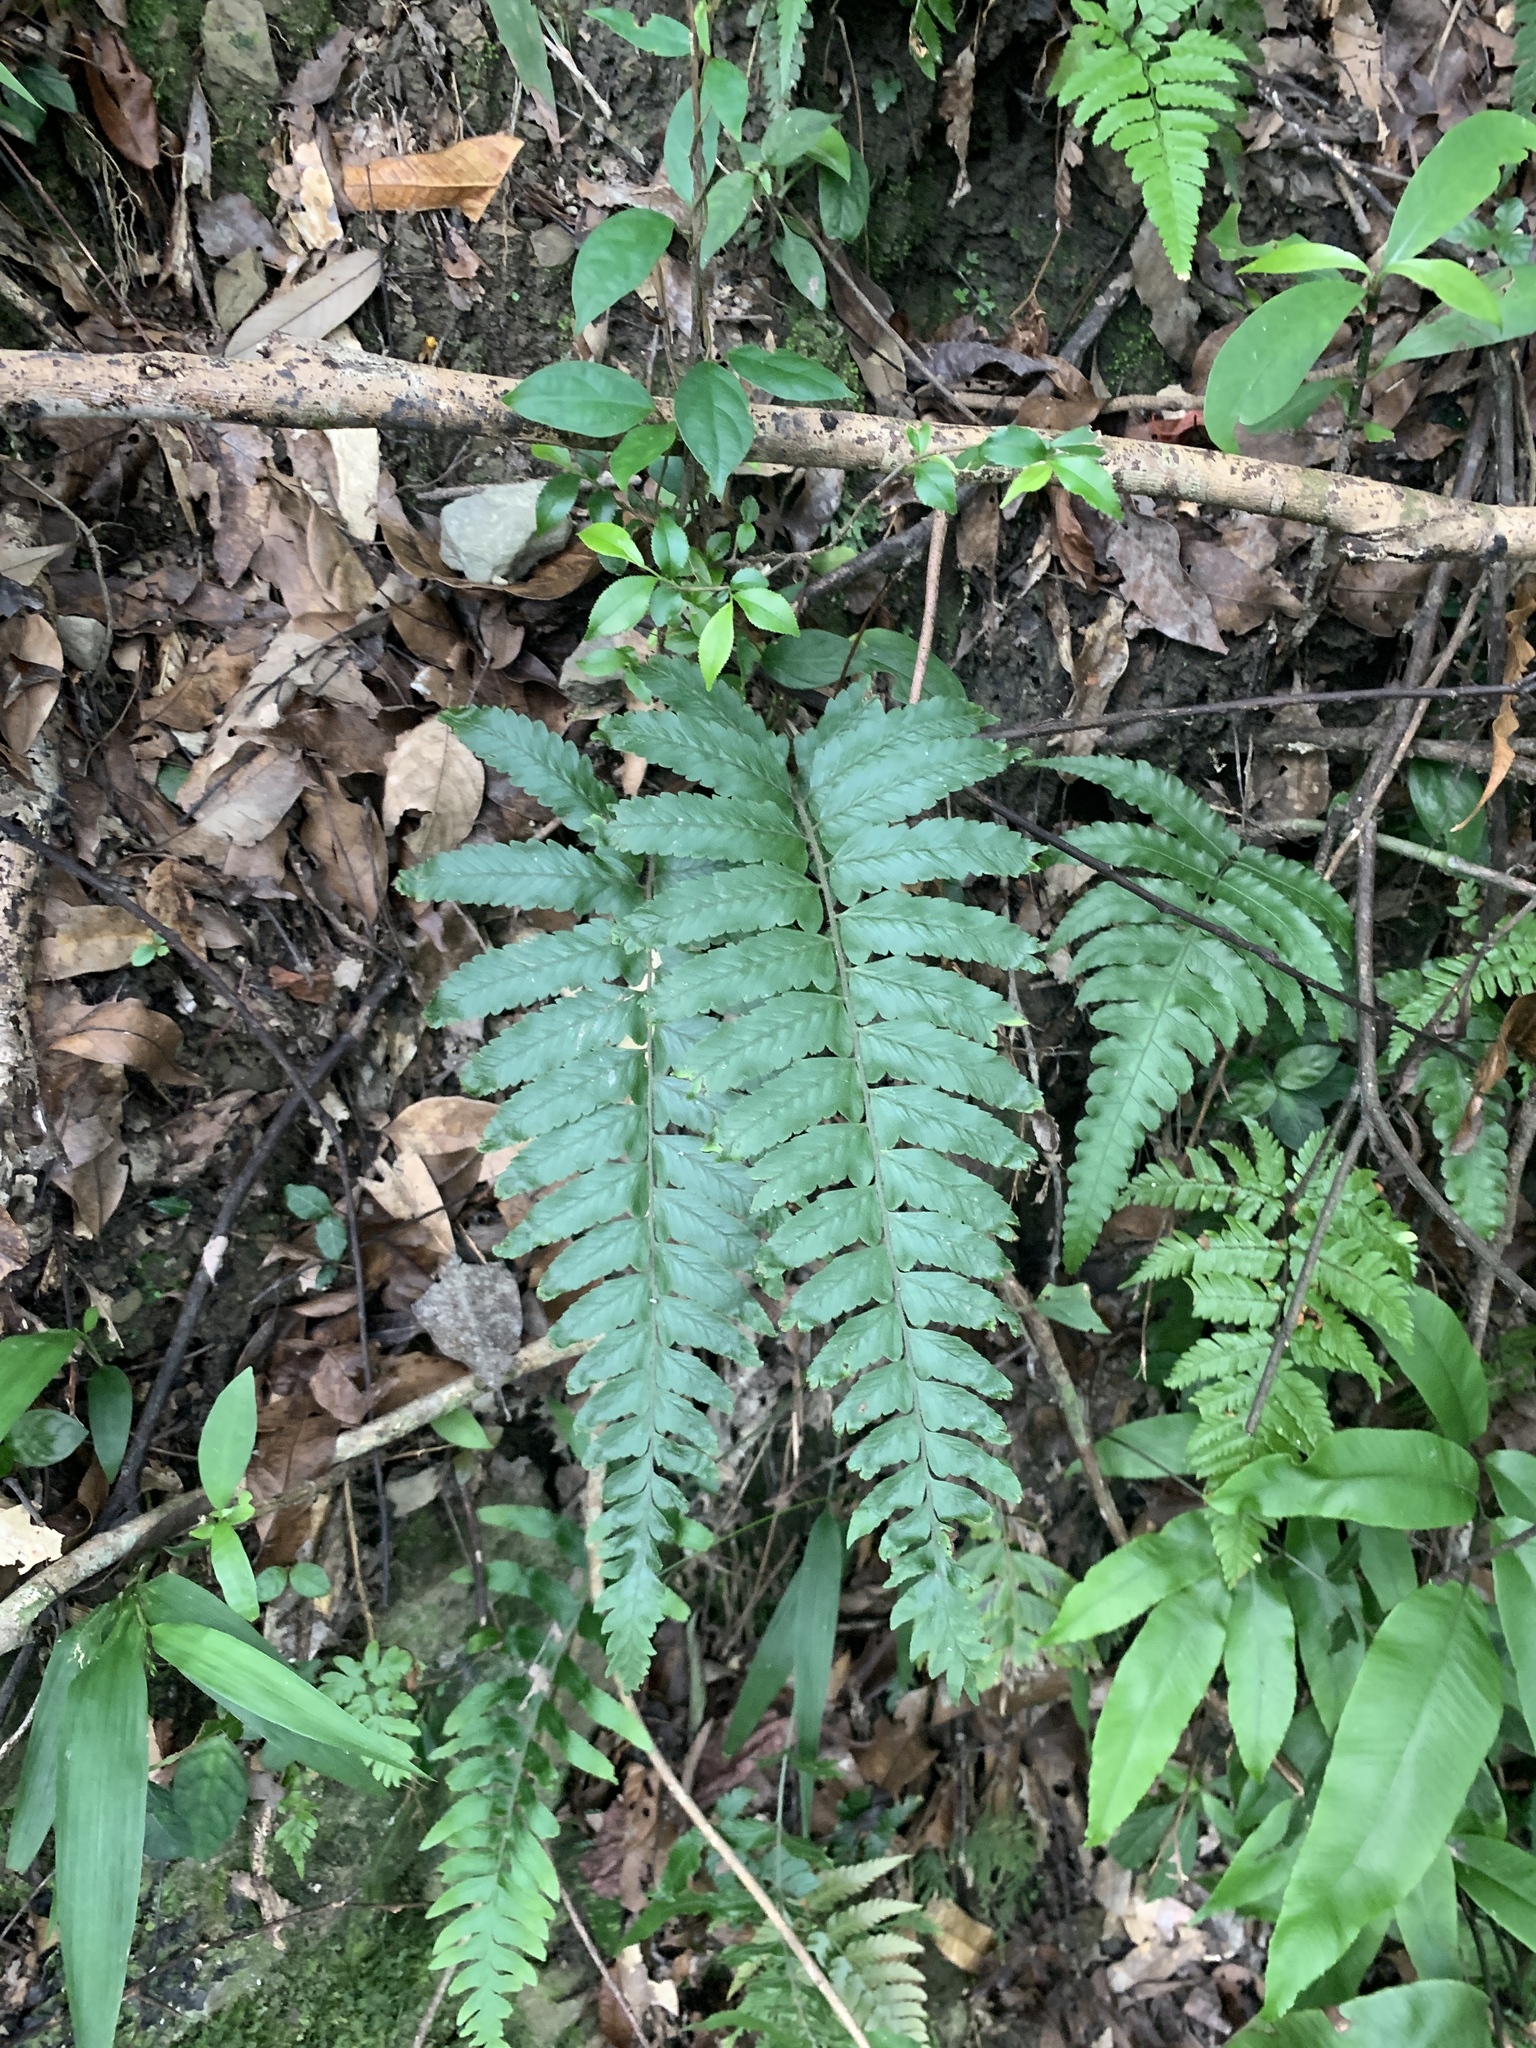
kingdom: Plantae
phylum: Tracheophyta
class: Polypodiopsida
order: Polypodiales
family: Dennstaedtiaceae
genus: Microlepia
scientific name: Microlepia marginata
